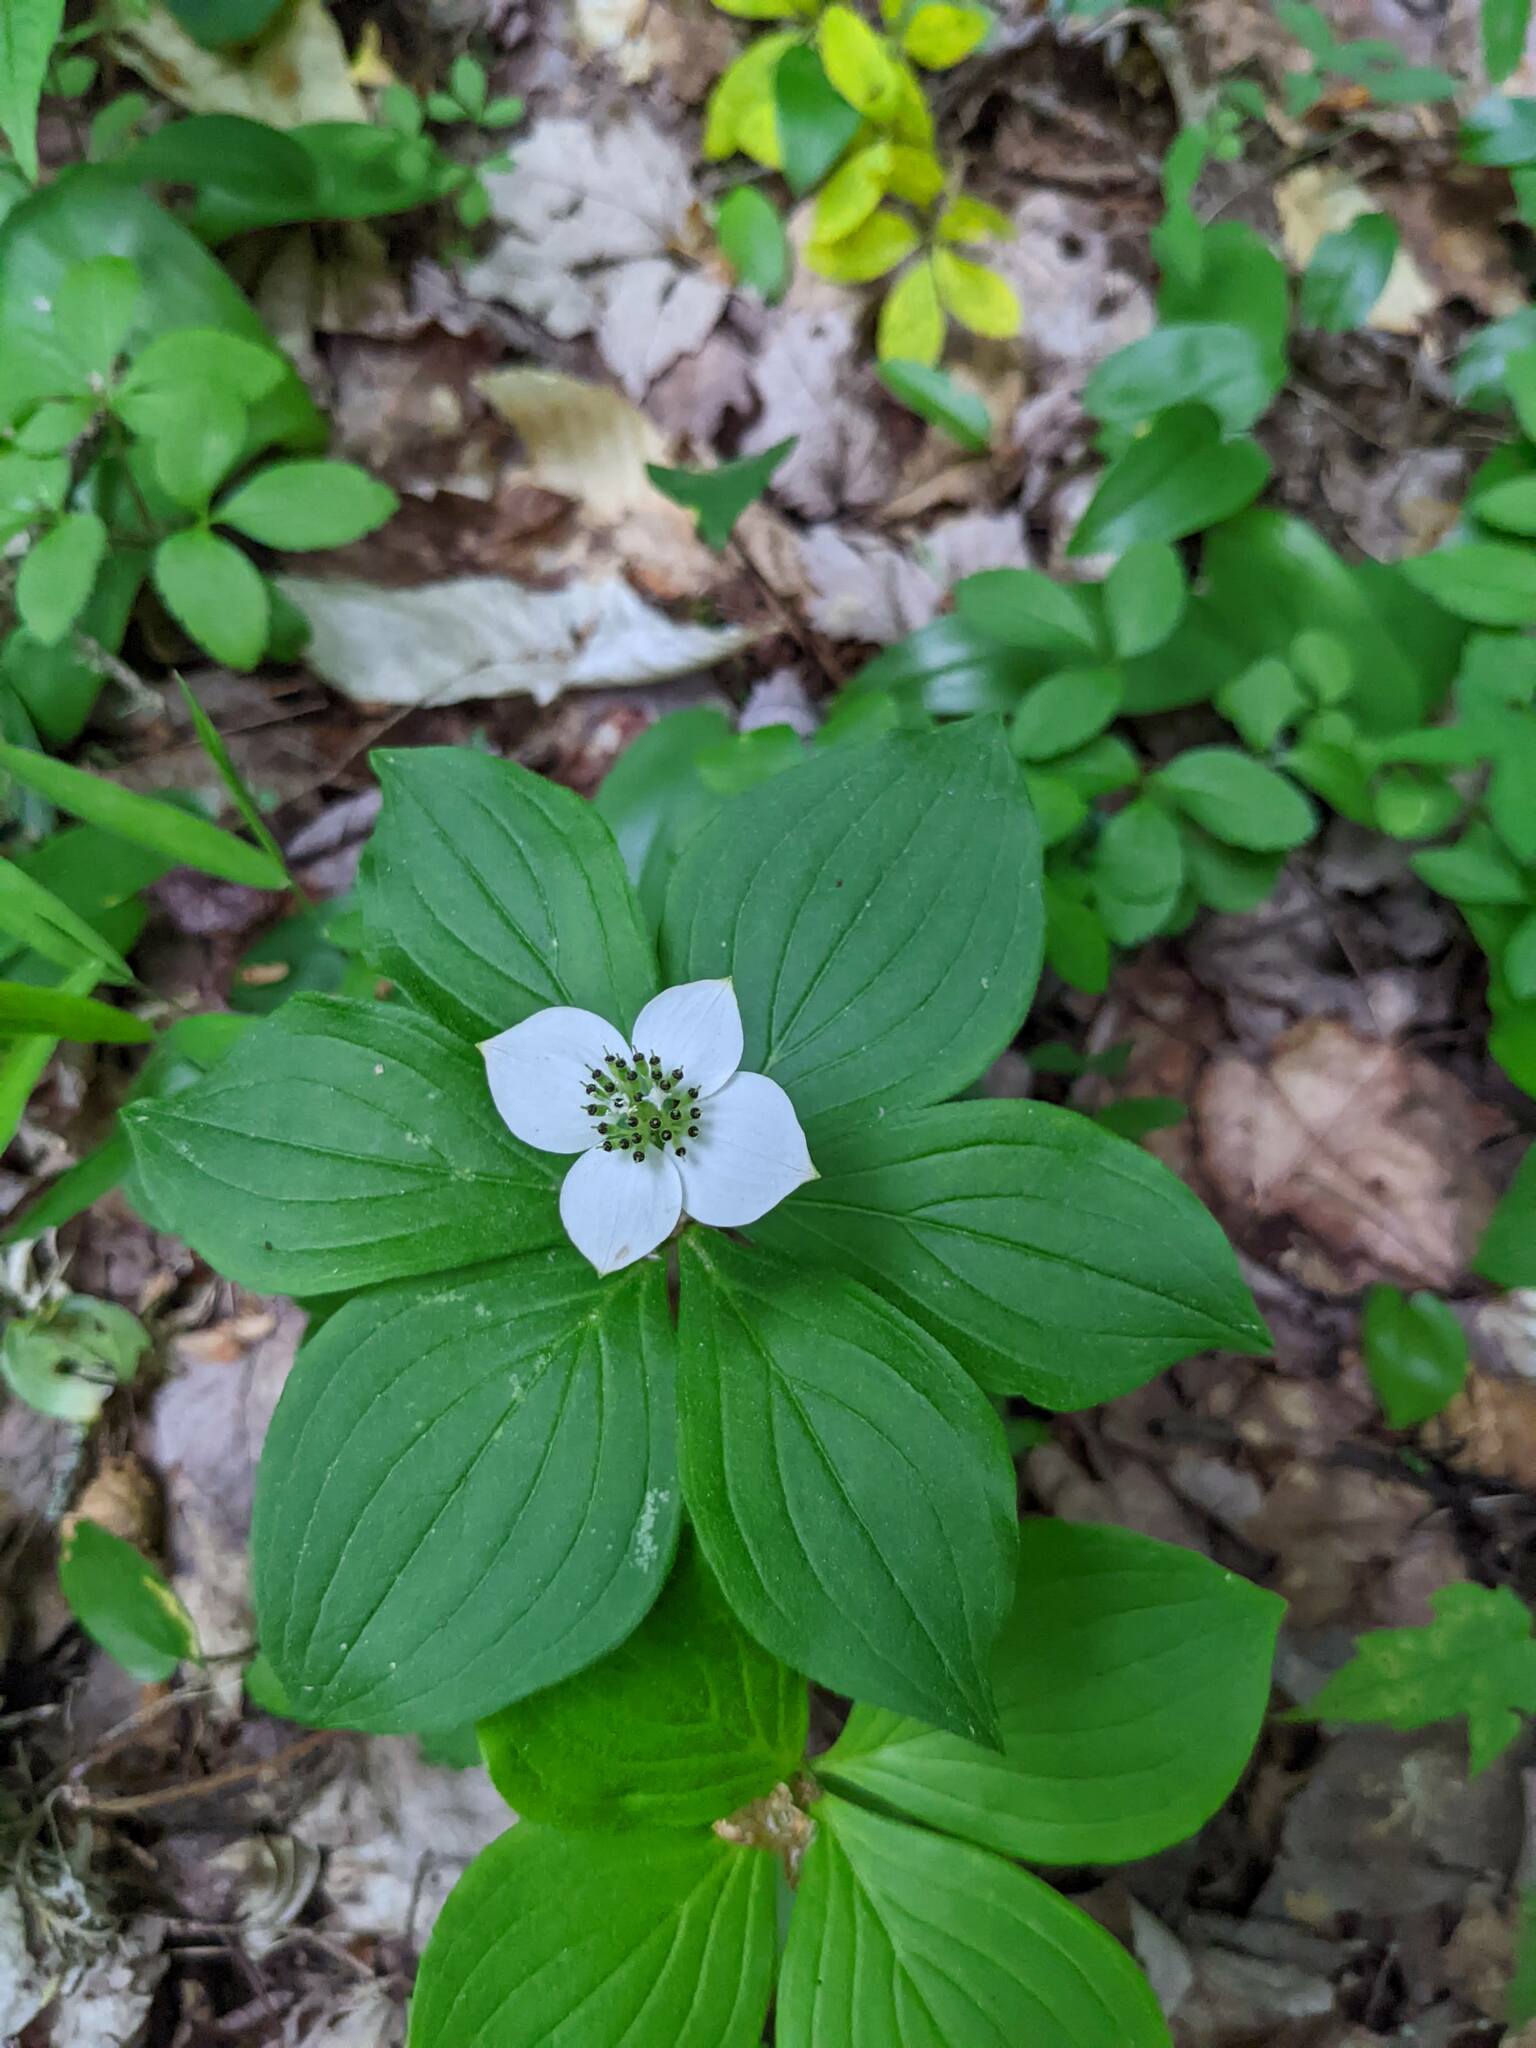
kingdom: Plantae
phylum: Tracheophyta
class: Magnoliopsida
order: Cornales
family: Cornaceae
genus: Cornus
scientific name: Cornus canadensis
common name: Creeping dogwood
